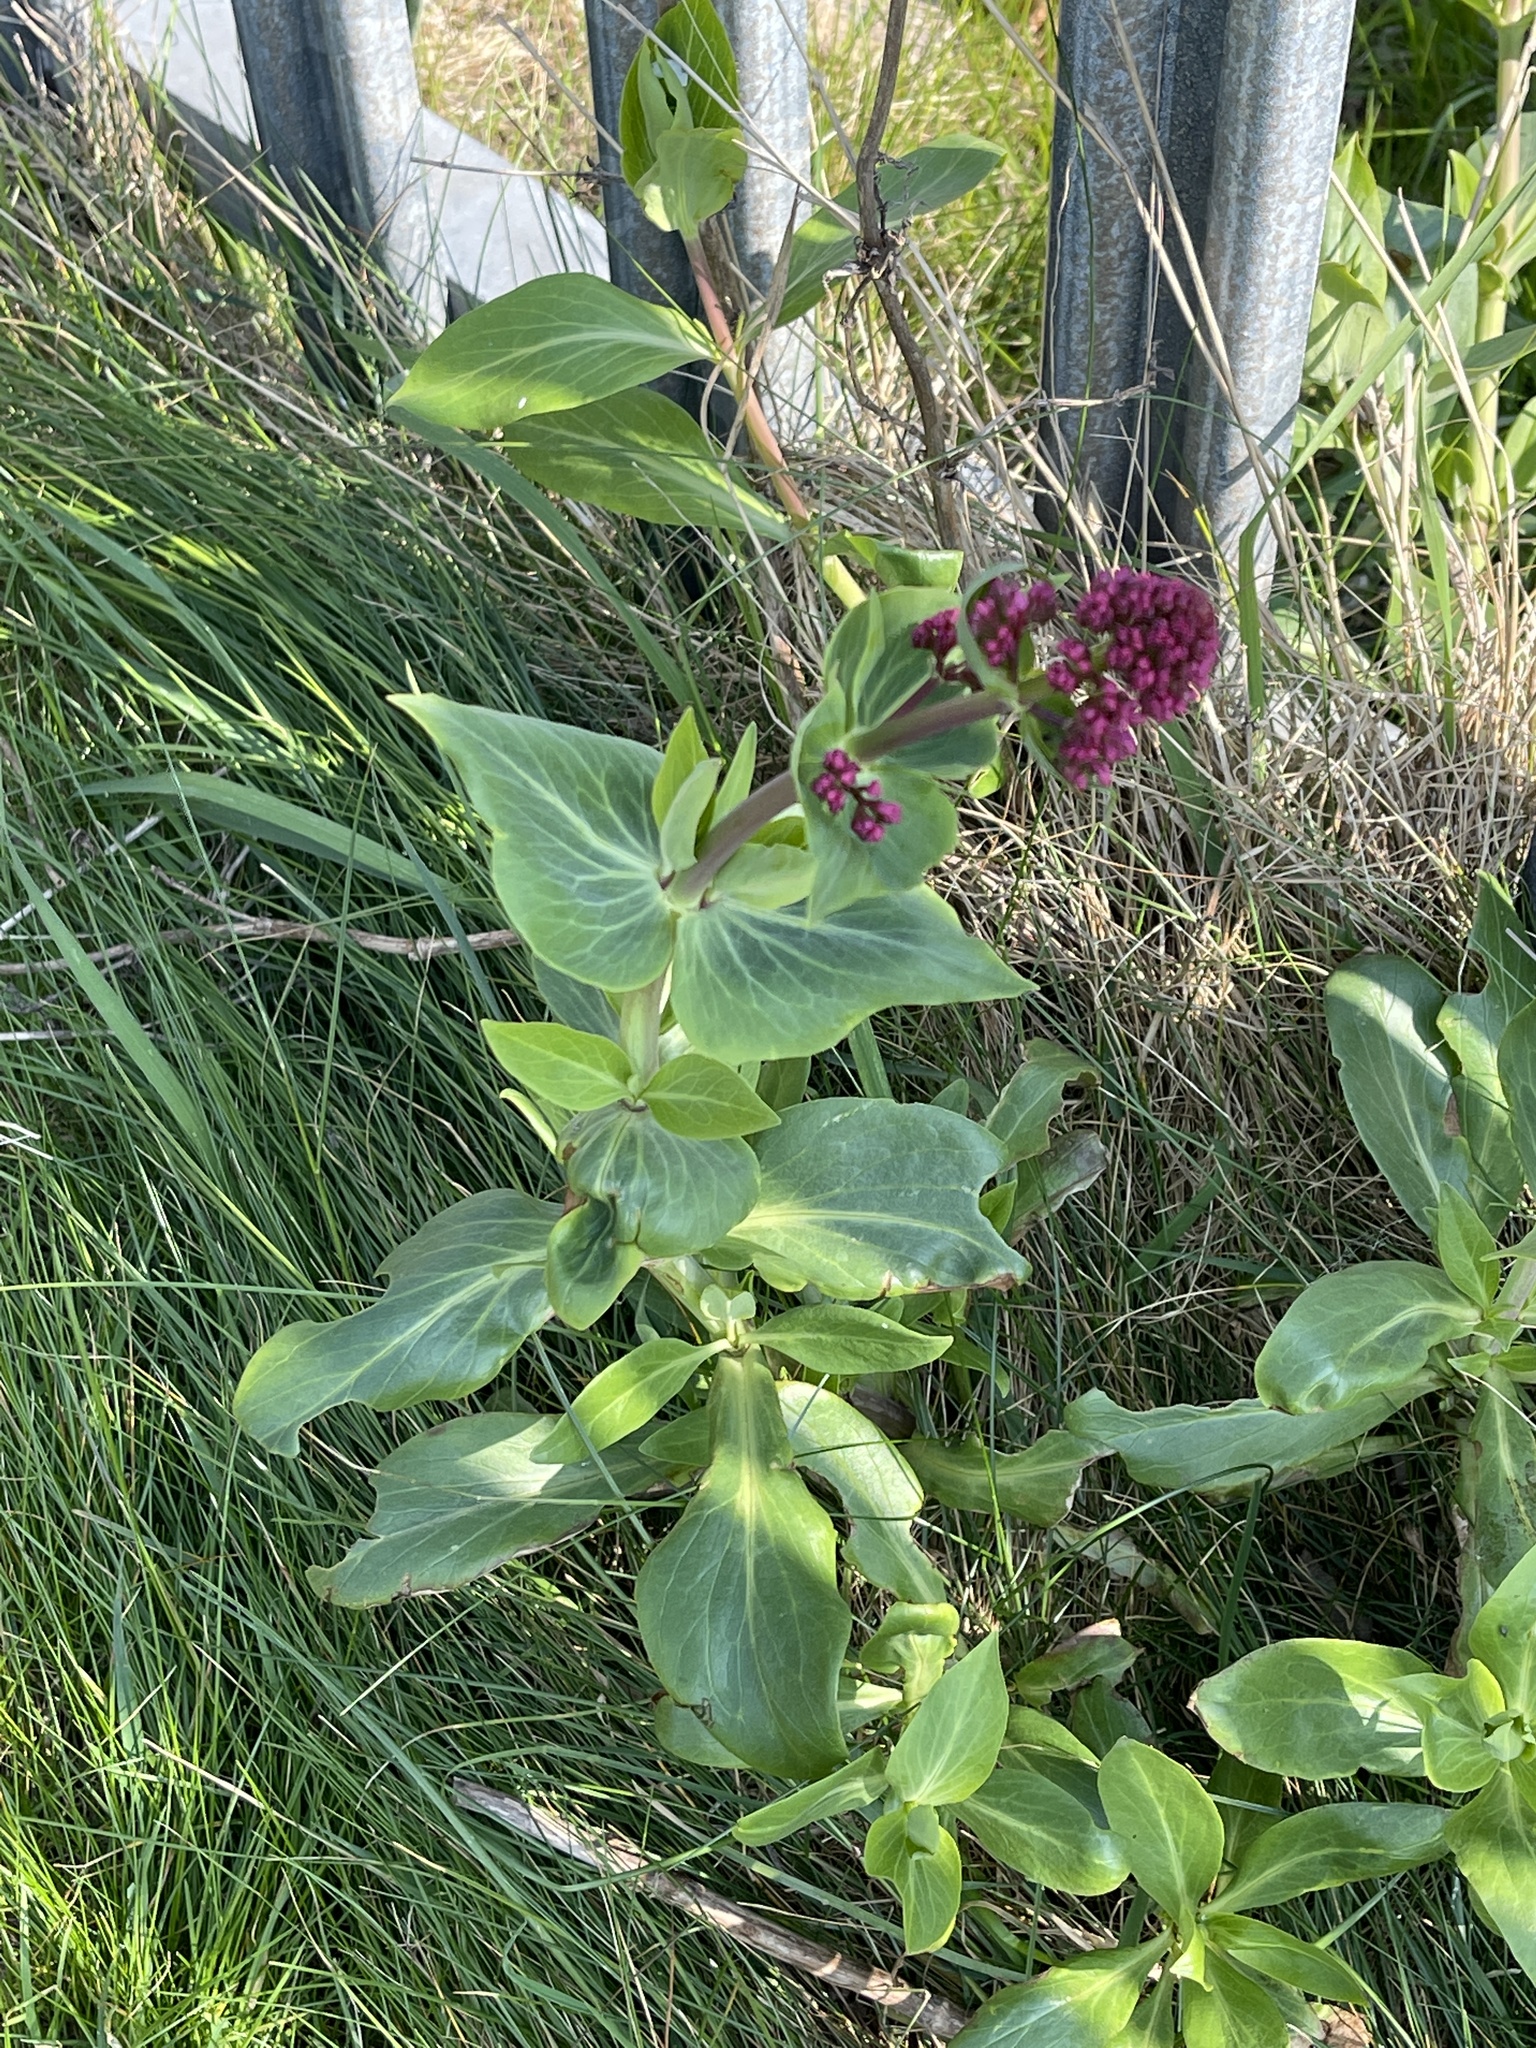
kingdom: Plantae
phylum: Tracheophyta
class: Magnoliopsida
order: Dipsacales
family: Caprifoliaceae
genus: Centranthus
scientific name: Centranthus ruber
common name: Red valerian
